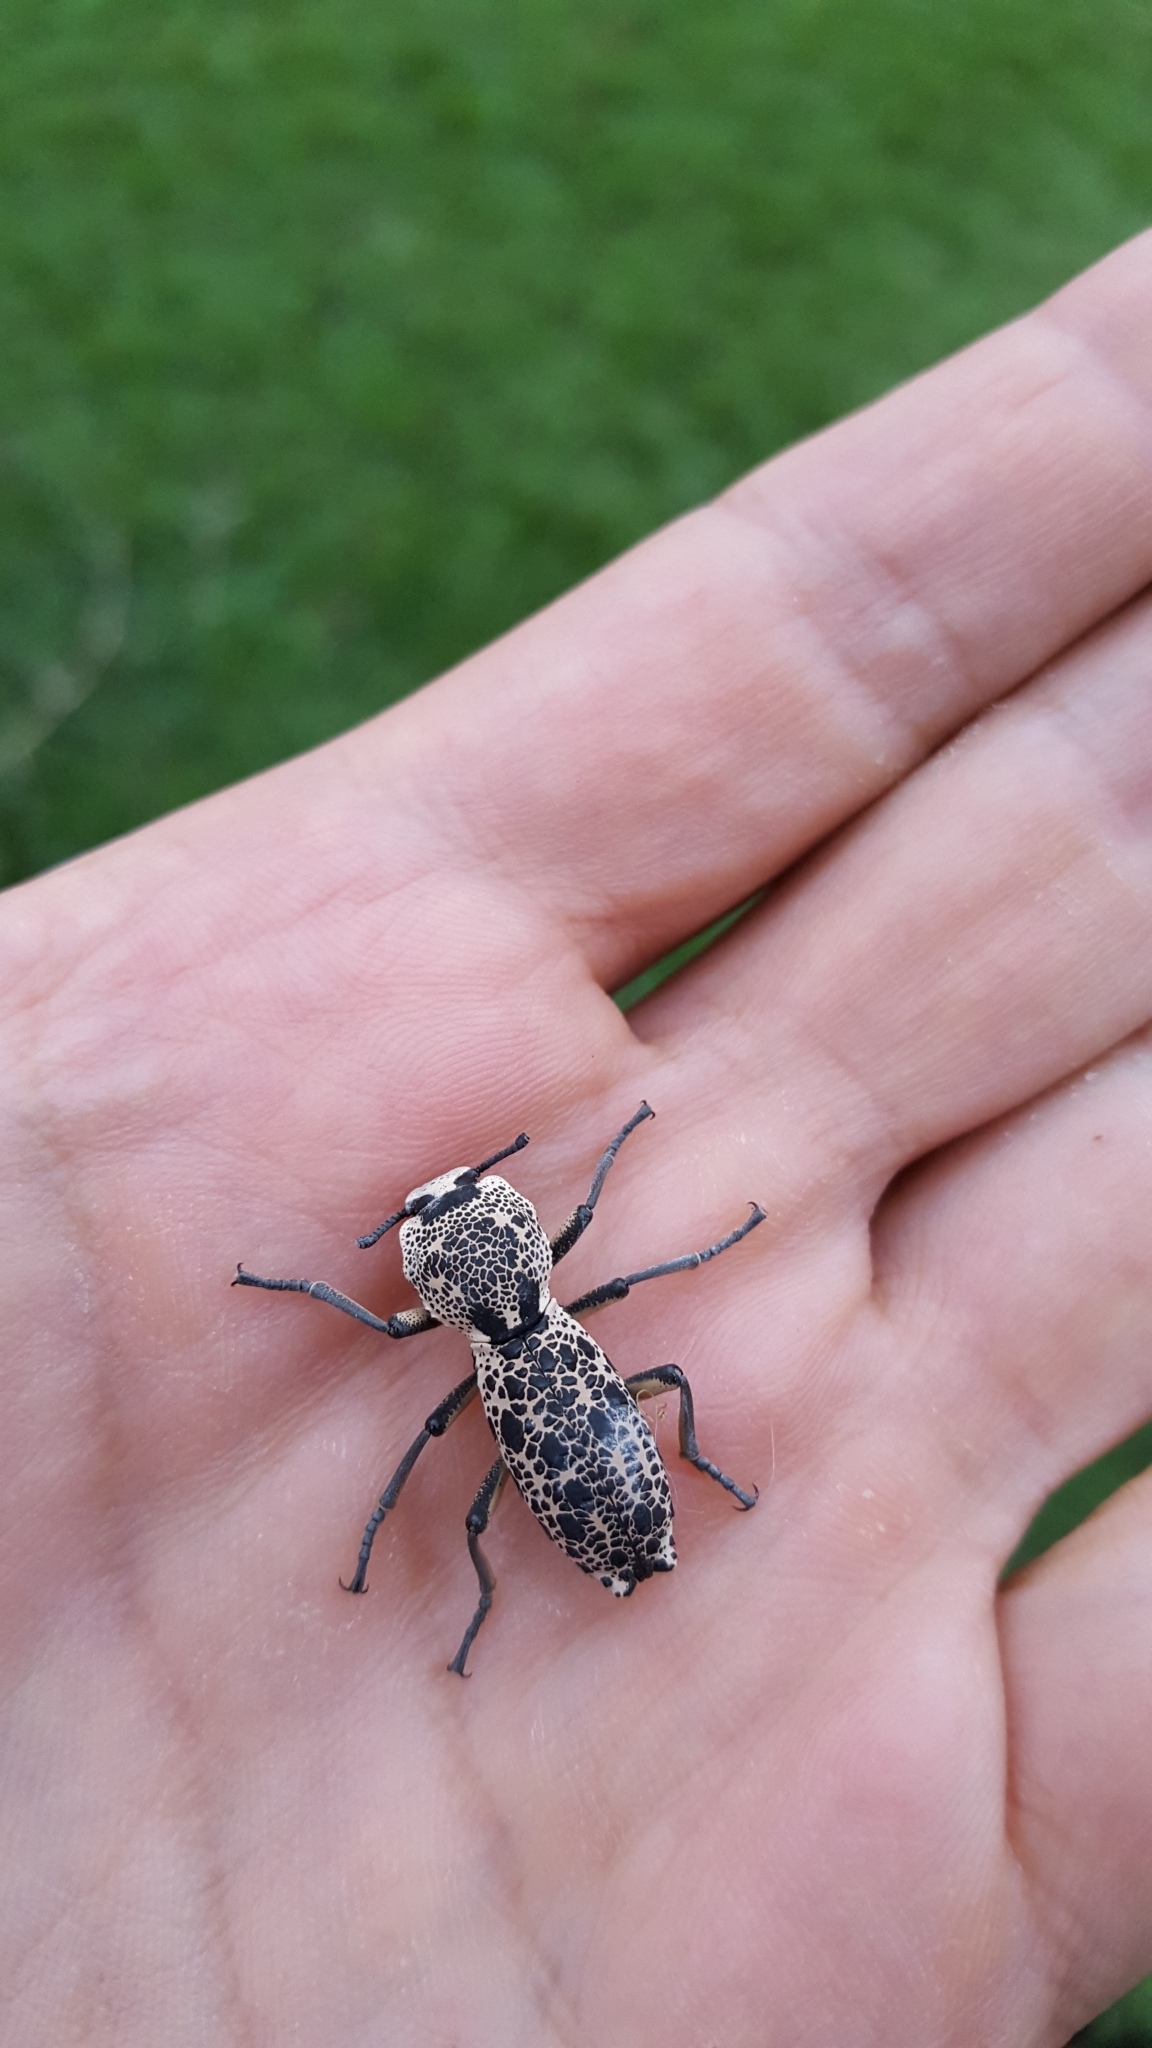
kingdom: Animalia
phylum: Arthropoda
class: Insecta
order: Coleoptera
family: Zopheridae
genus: Zopherus
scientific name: Zopherus
